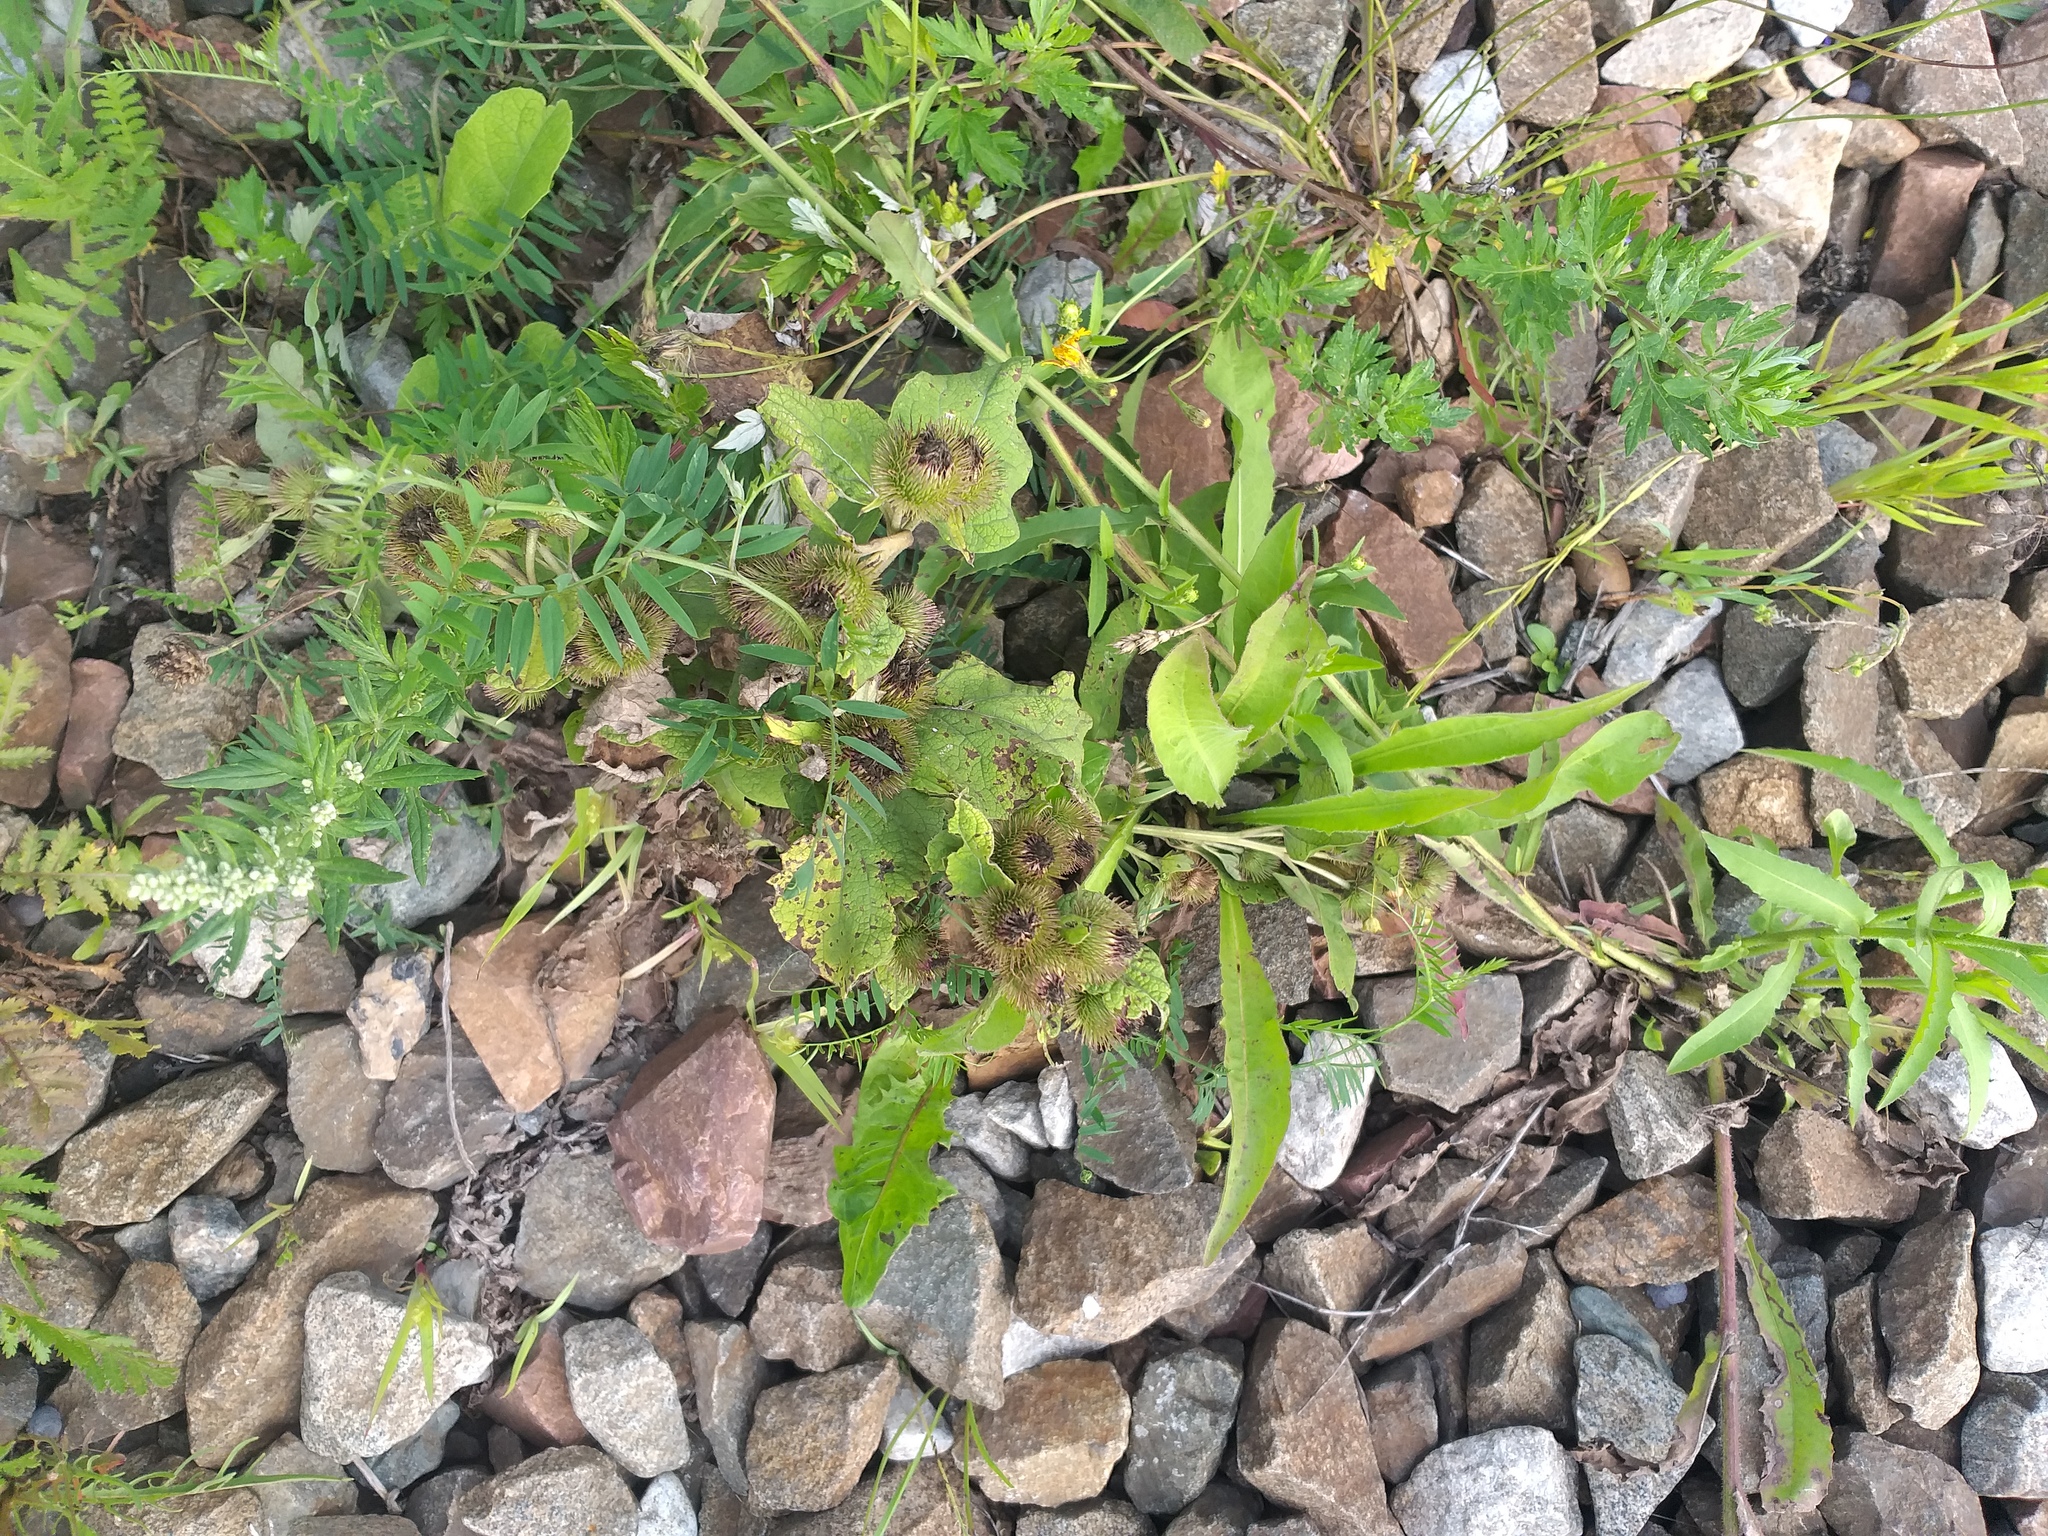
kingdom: Plantae
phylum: Tracheophyta
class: Magnoliopsida
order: Asterales
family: Asteraceae
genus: Arctium
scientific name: Arctium minus
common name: Lesser burdock
